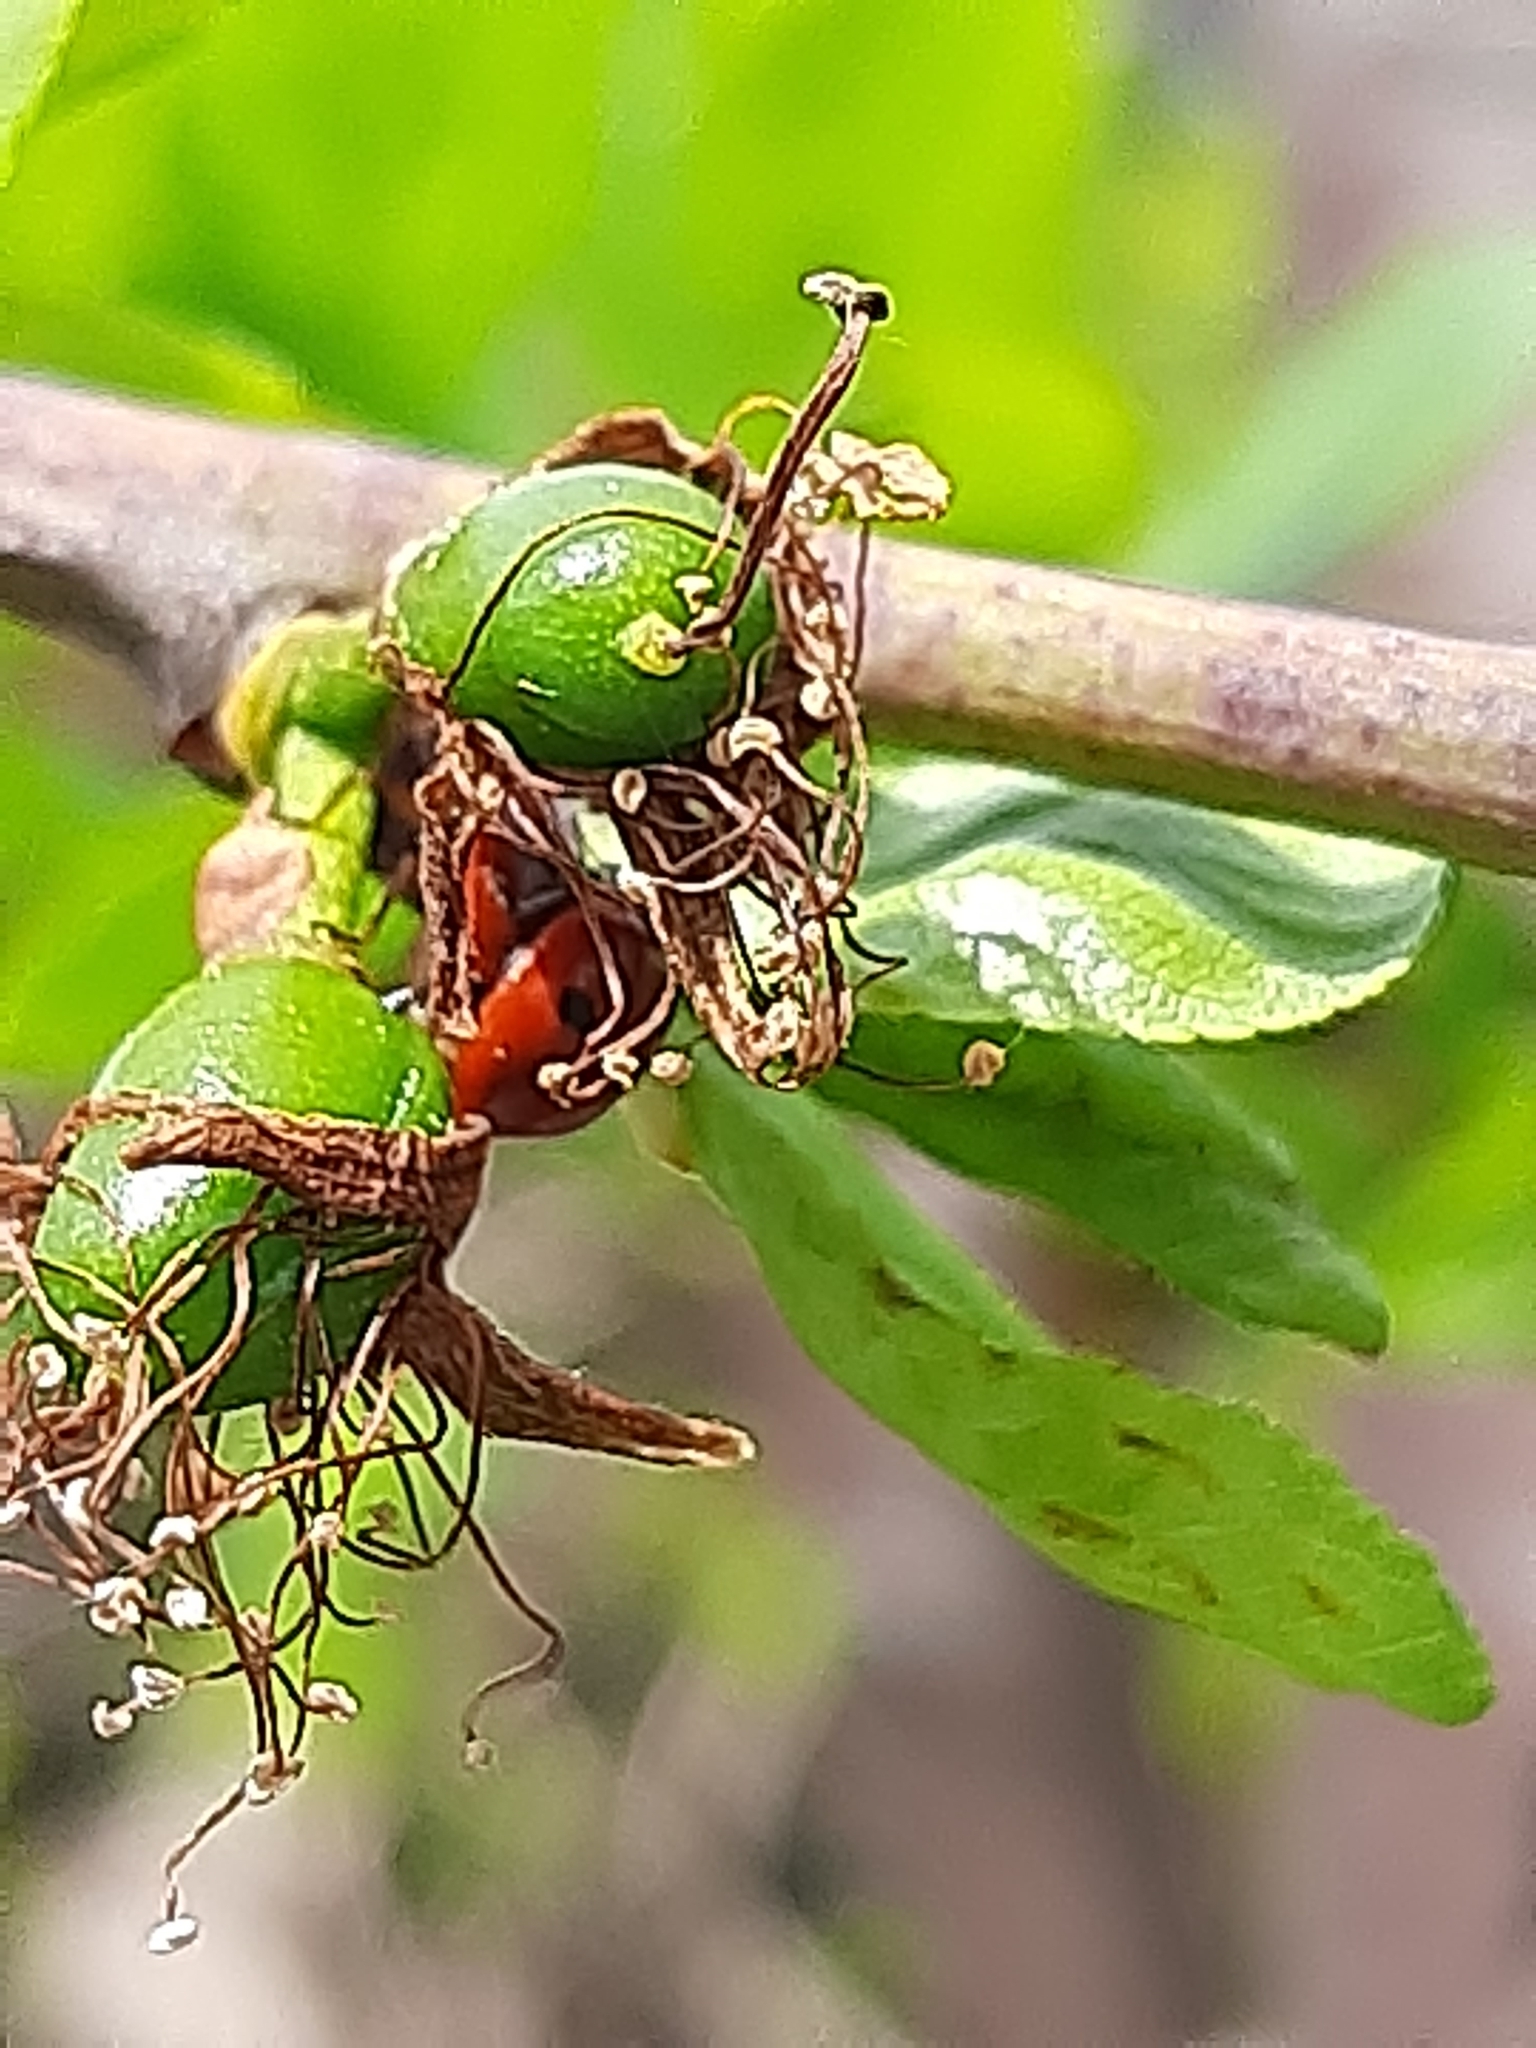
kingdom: Animalia
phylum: Arthropoda
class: Insecta
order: Coleoptera
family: Coccinellidae
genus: Adalia
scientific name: Adalia bipunctata
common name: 2-spot ladybird
